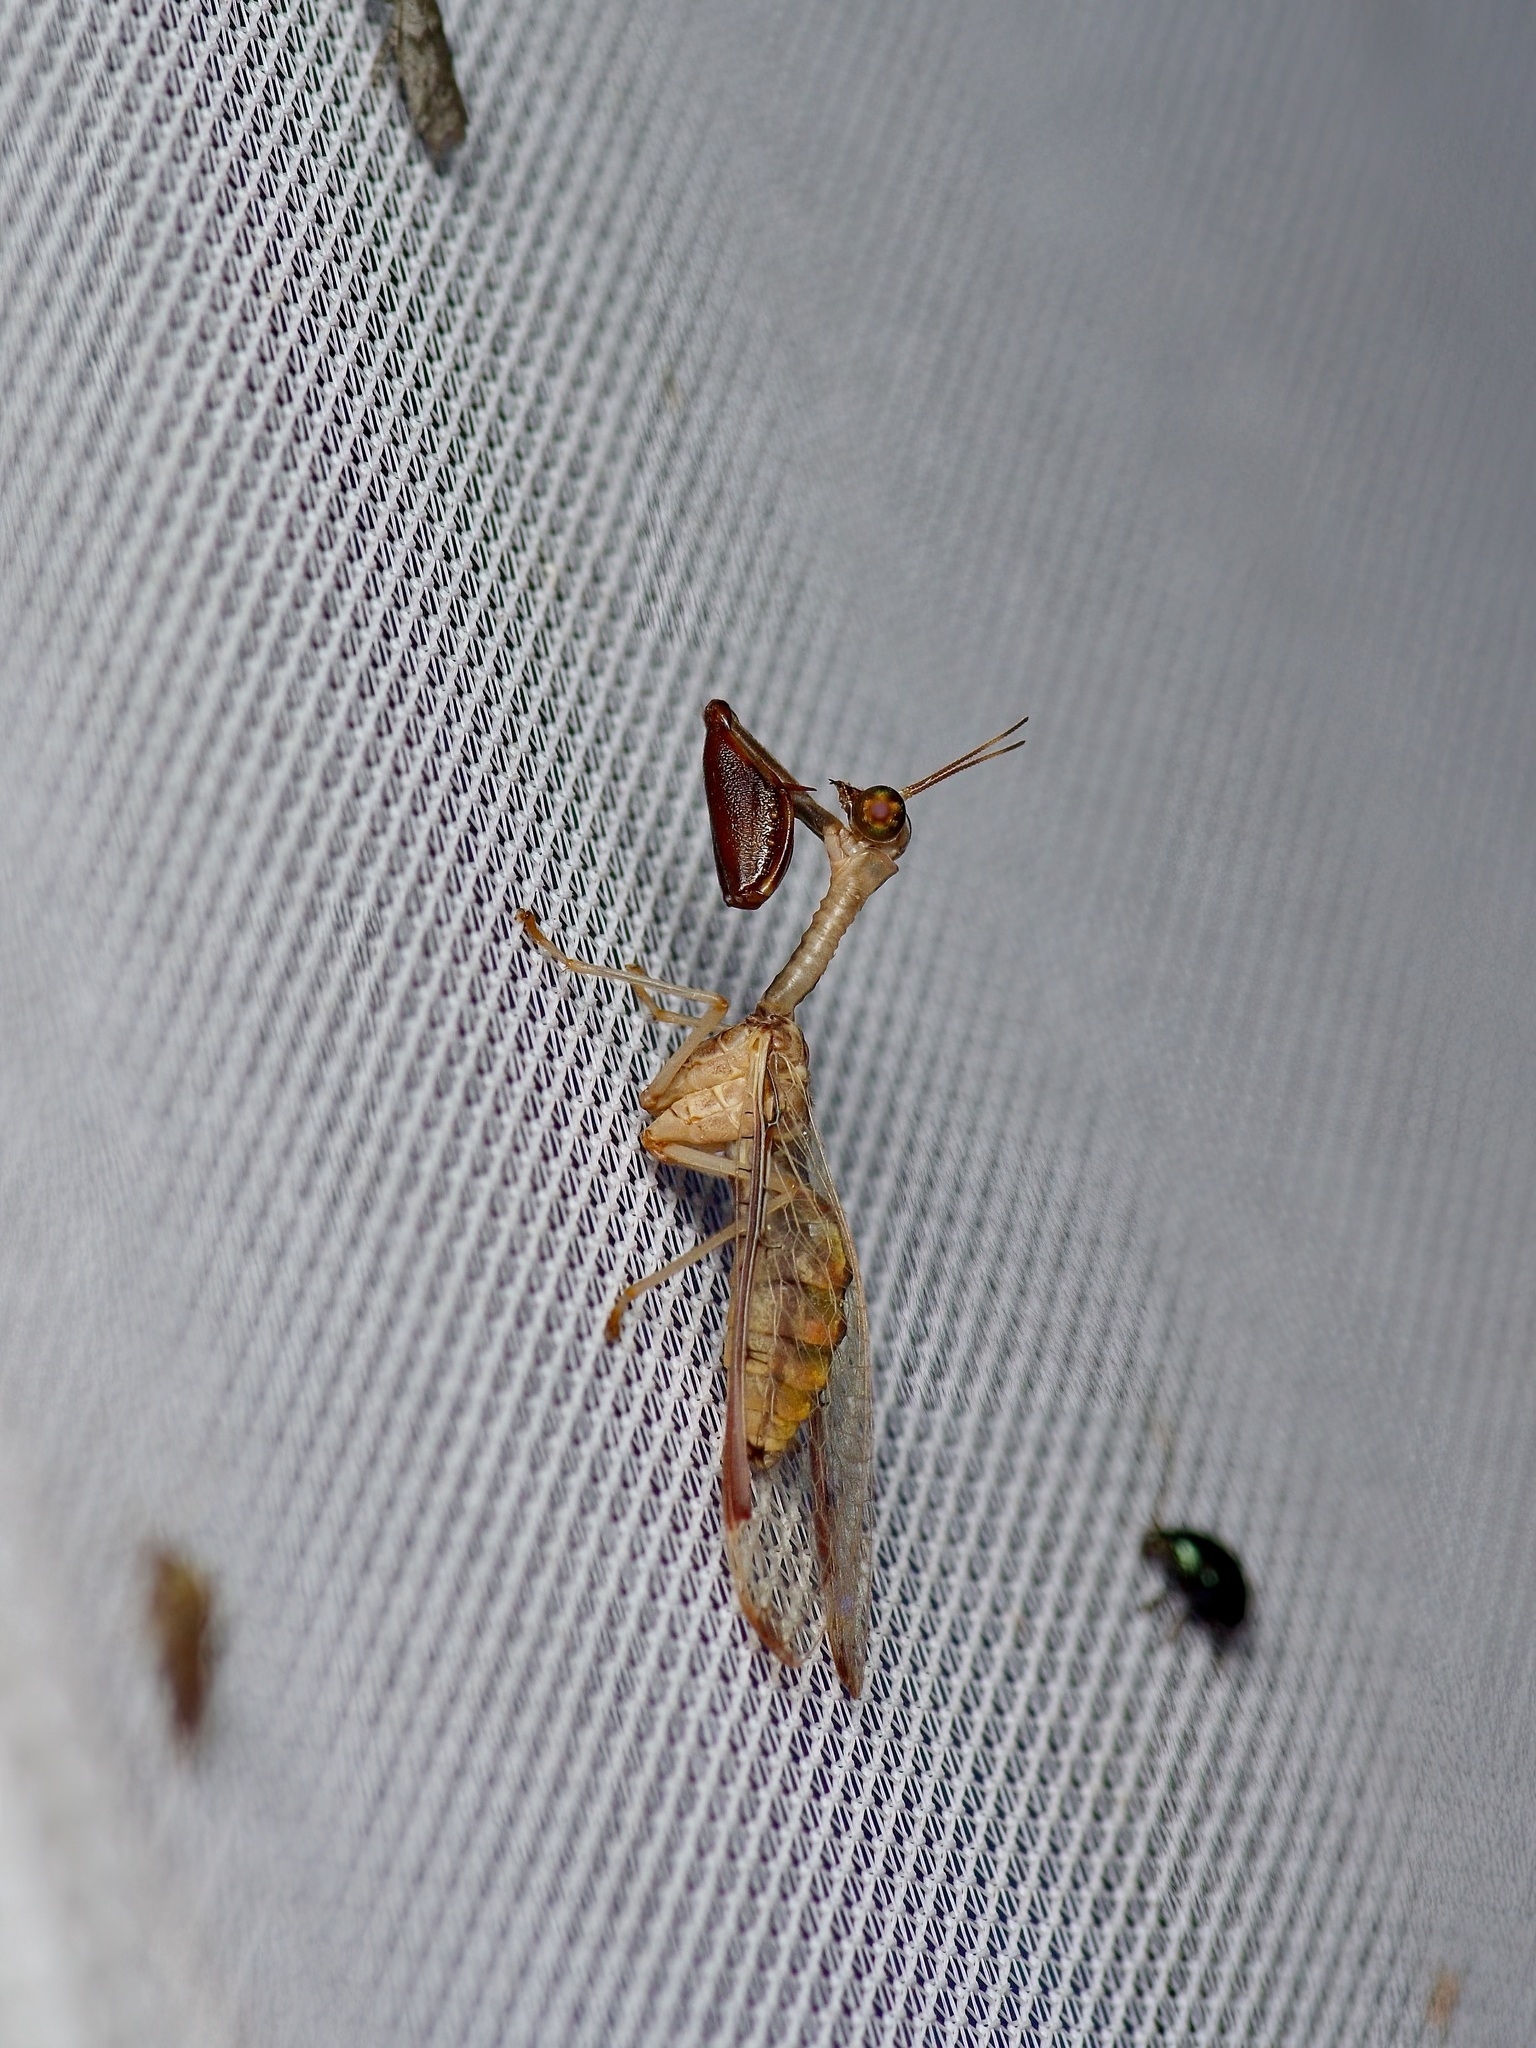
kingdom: Animalia
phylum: Arthropoda
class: Insecta
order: Neuroptera
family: Mantispidae
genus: Dicromantispa
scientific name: Dicromantispa interrupta
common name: Four-spotted mantidfly
